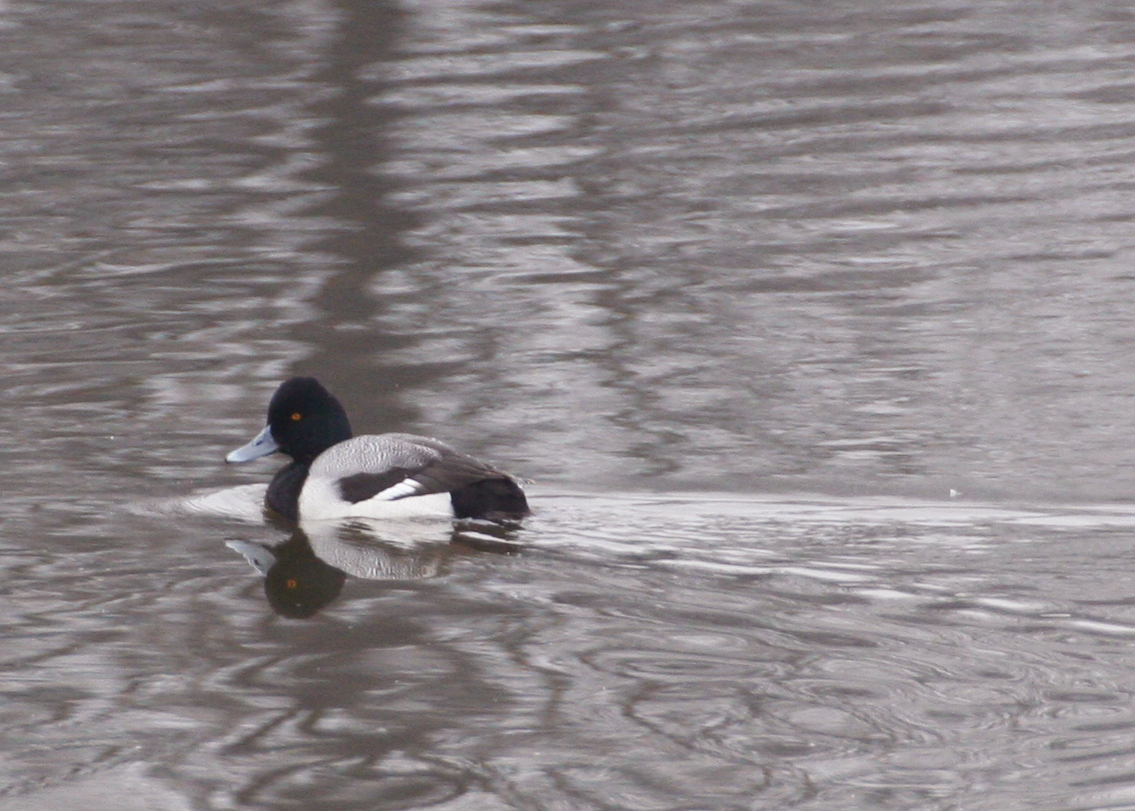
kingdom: Animalia
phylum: Chordata
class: Aves
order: Anseriformes
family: Anatidae
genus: Aythya
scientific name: Aythya affinis
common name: Lesser scaup
